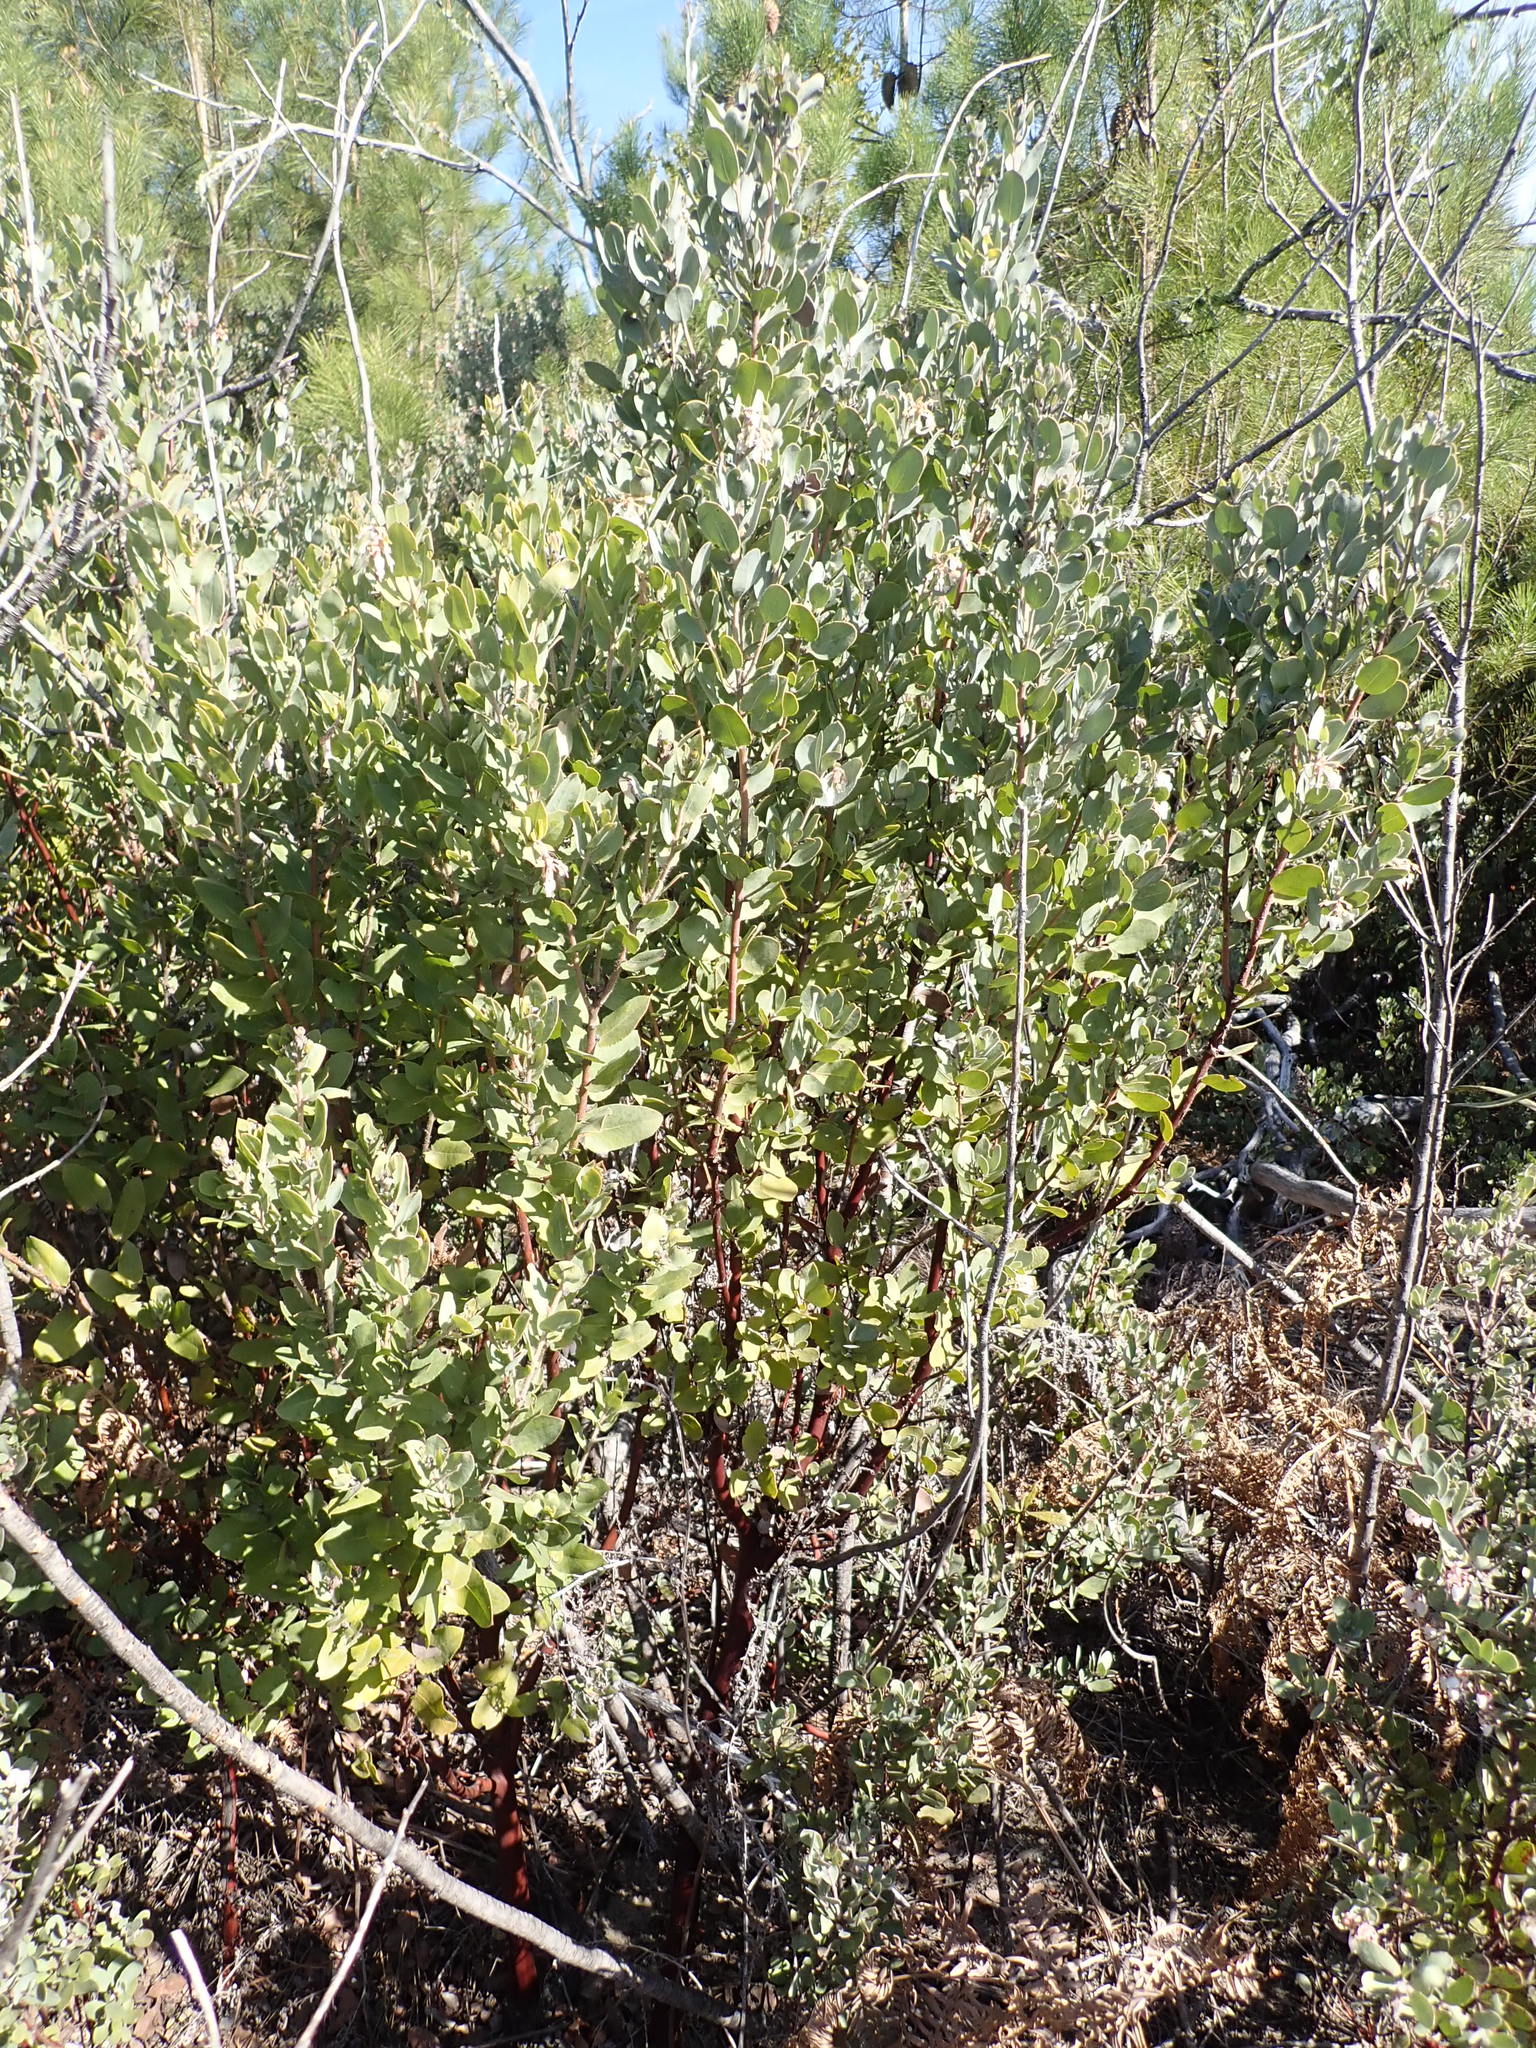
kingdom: Plantae
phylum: Tracheophyta
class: Magnoliopsida
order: Ericales
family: Ericaceae
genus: Arctostaphylos
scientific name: Arctostaphylos andersonii
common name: Santa cruz manzanita
